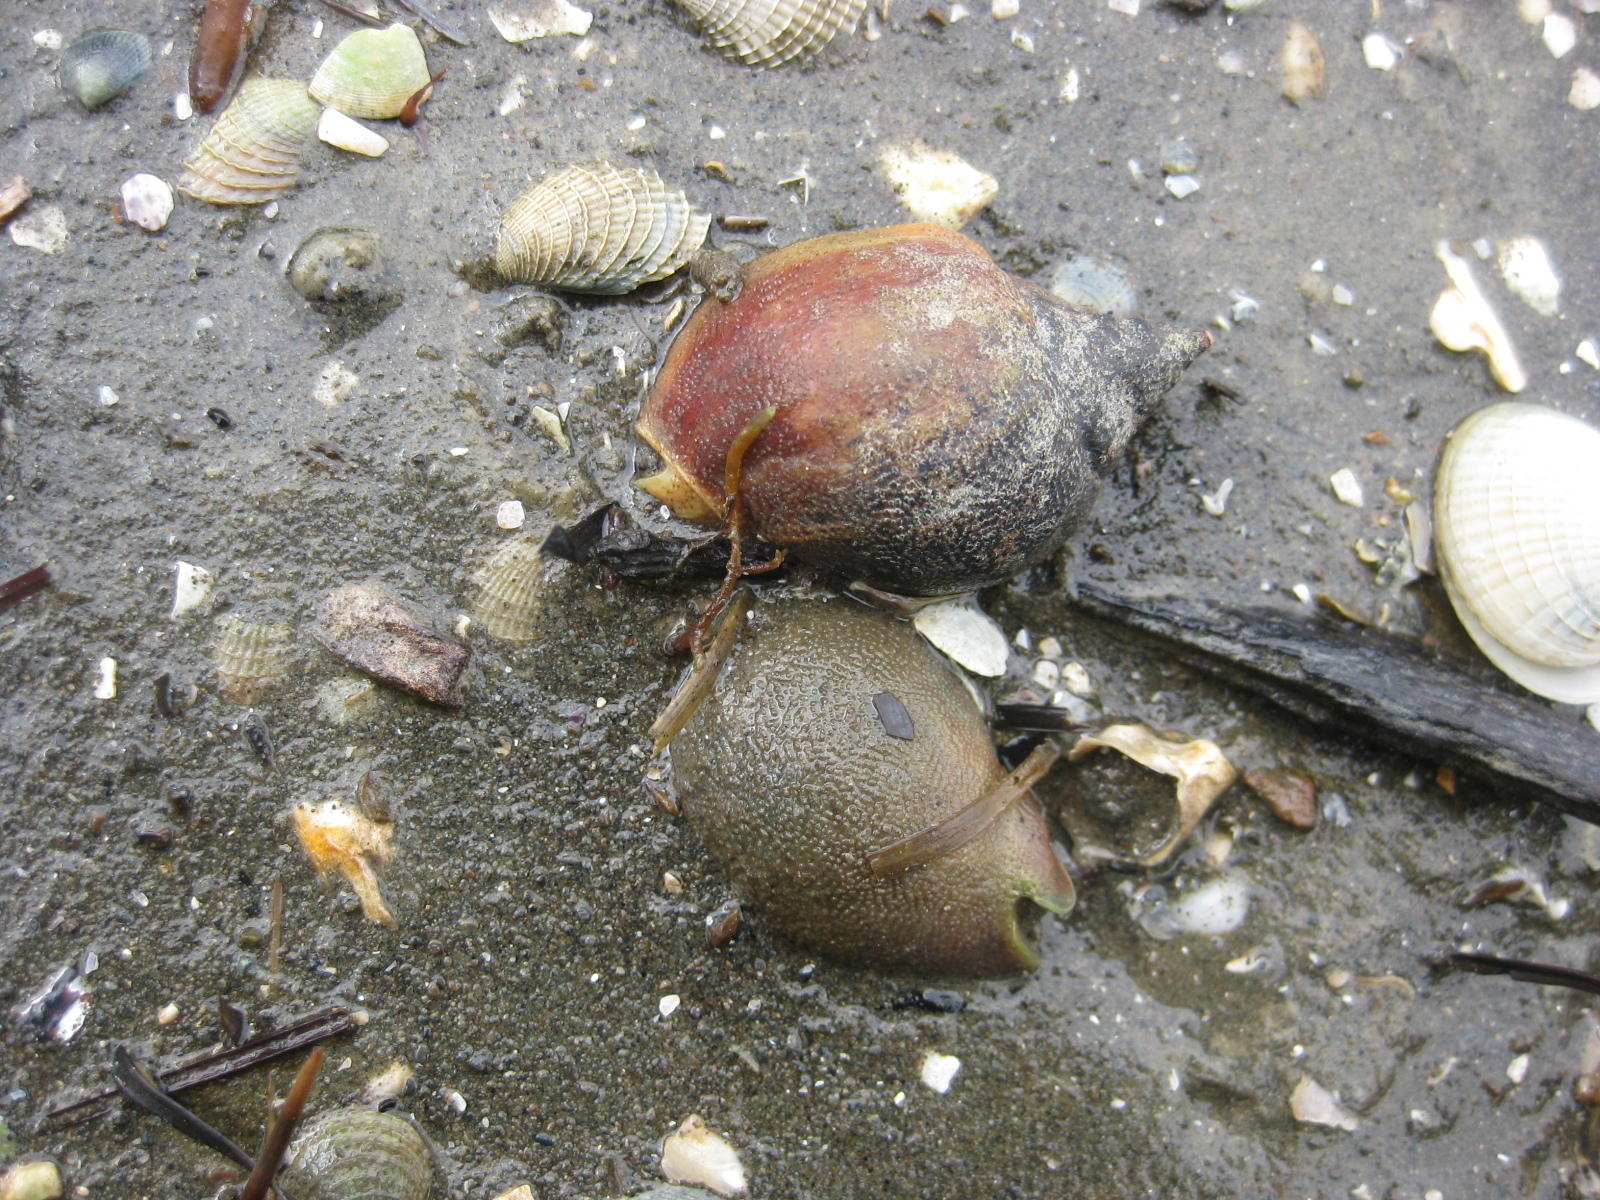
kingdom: Animalia
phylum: Mollusca
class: Gastropoda
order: Neogastropoda
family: Cominellidae
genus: Cominella
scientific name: Cominella adspersa
